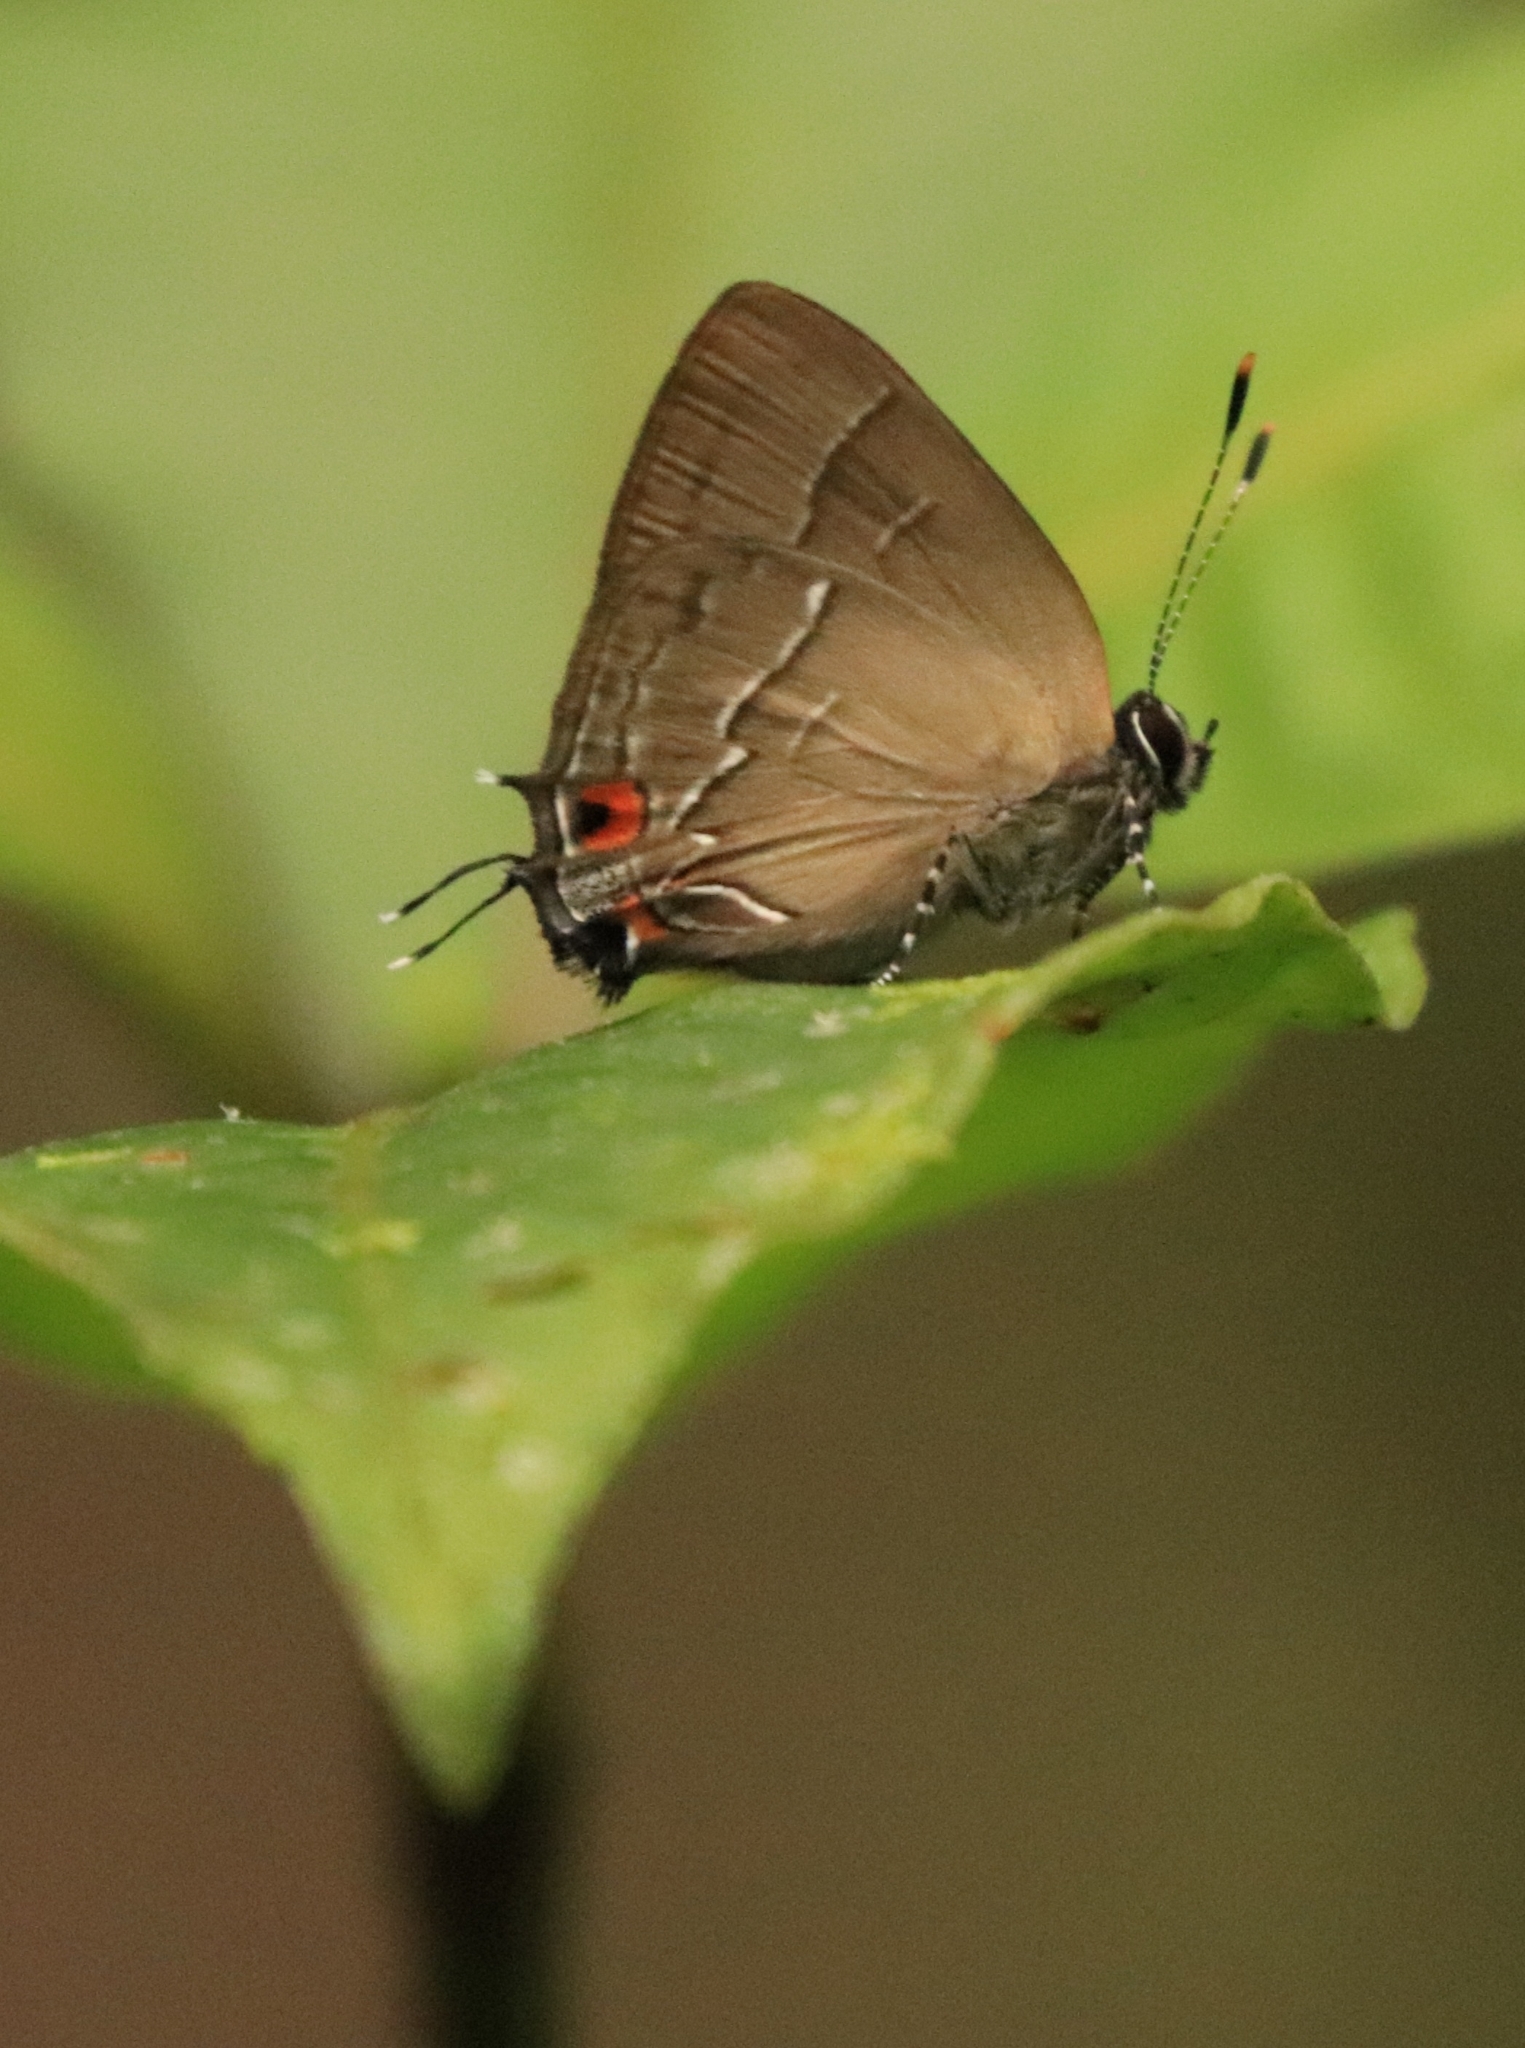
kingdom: Animalia
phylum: Arthropoda
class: Insecta
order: Lepidoptera
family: Lycaenidae
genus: Camissecla
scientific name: Camissecla
